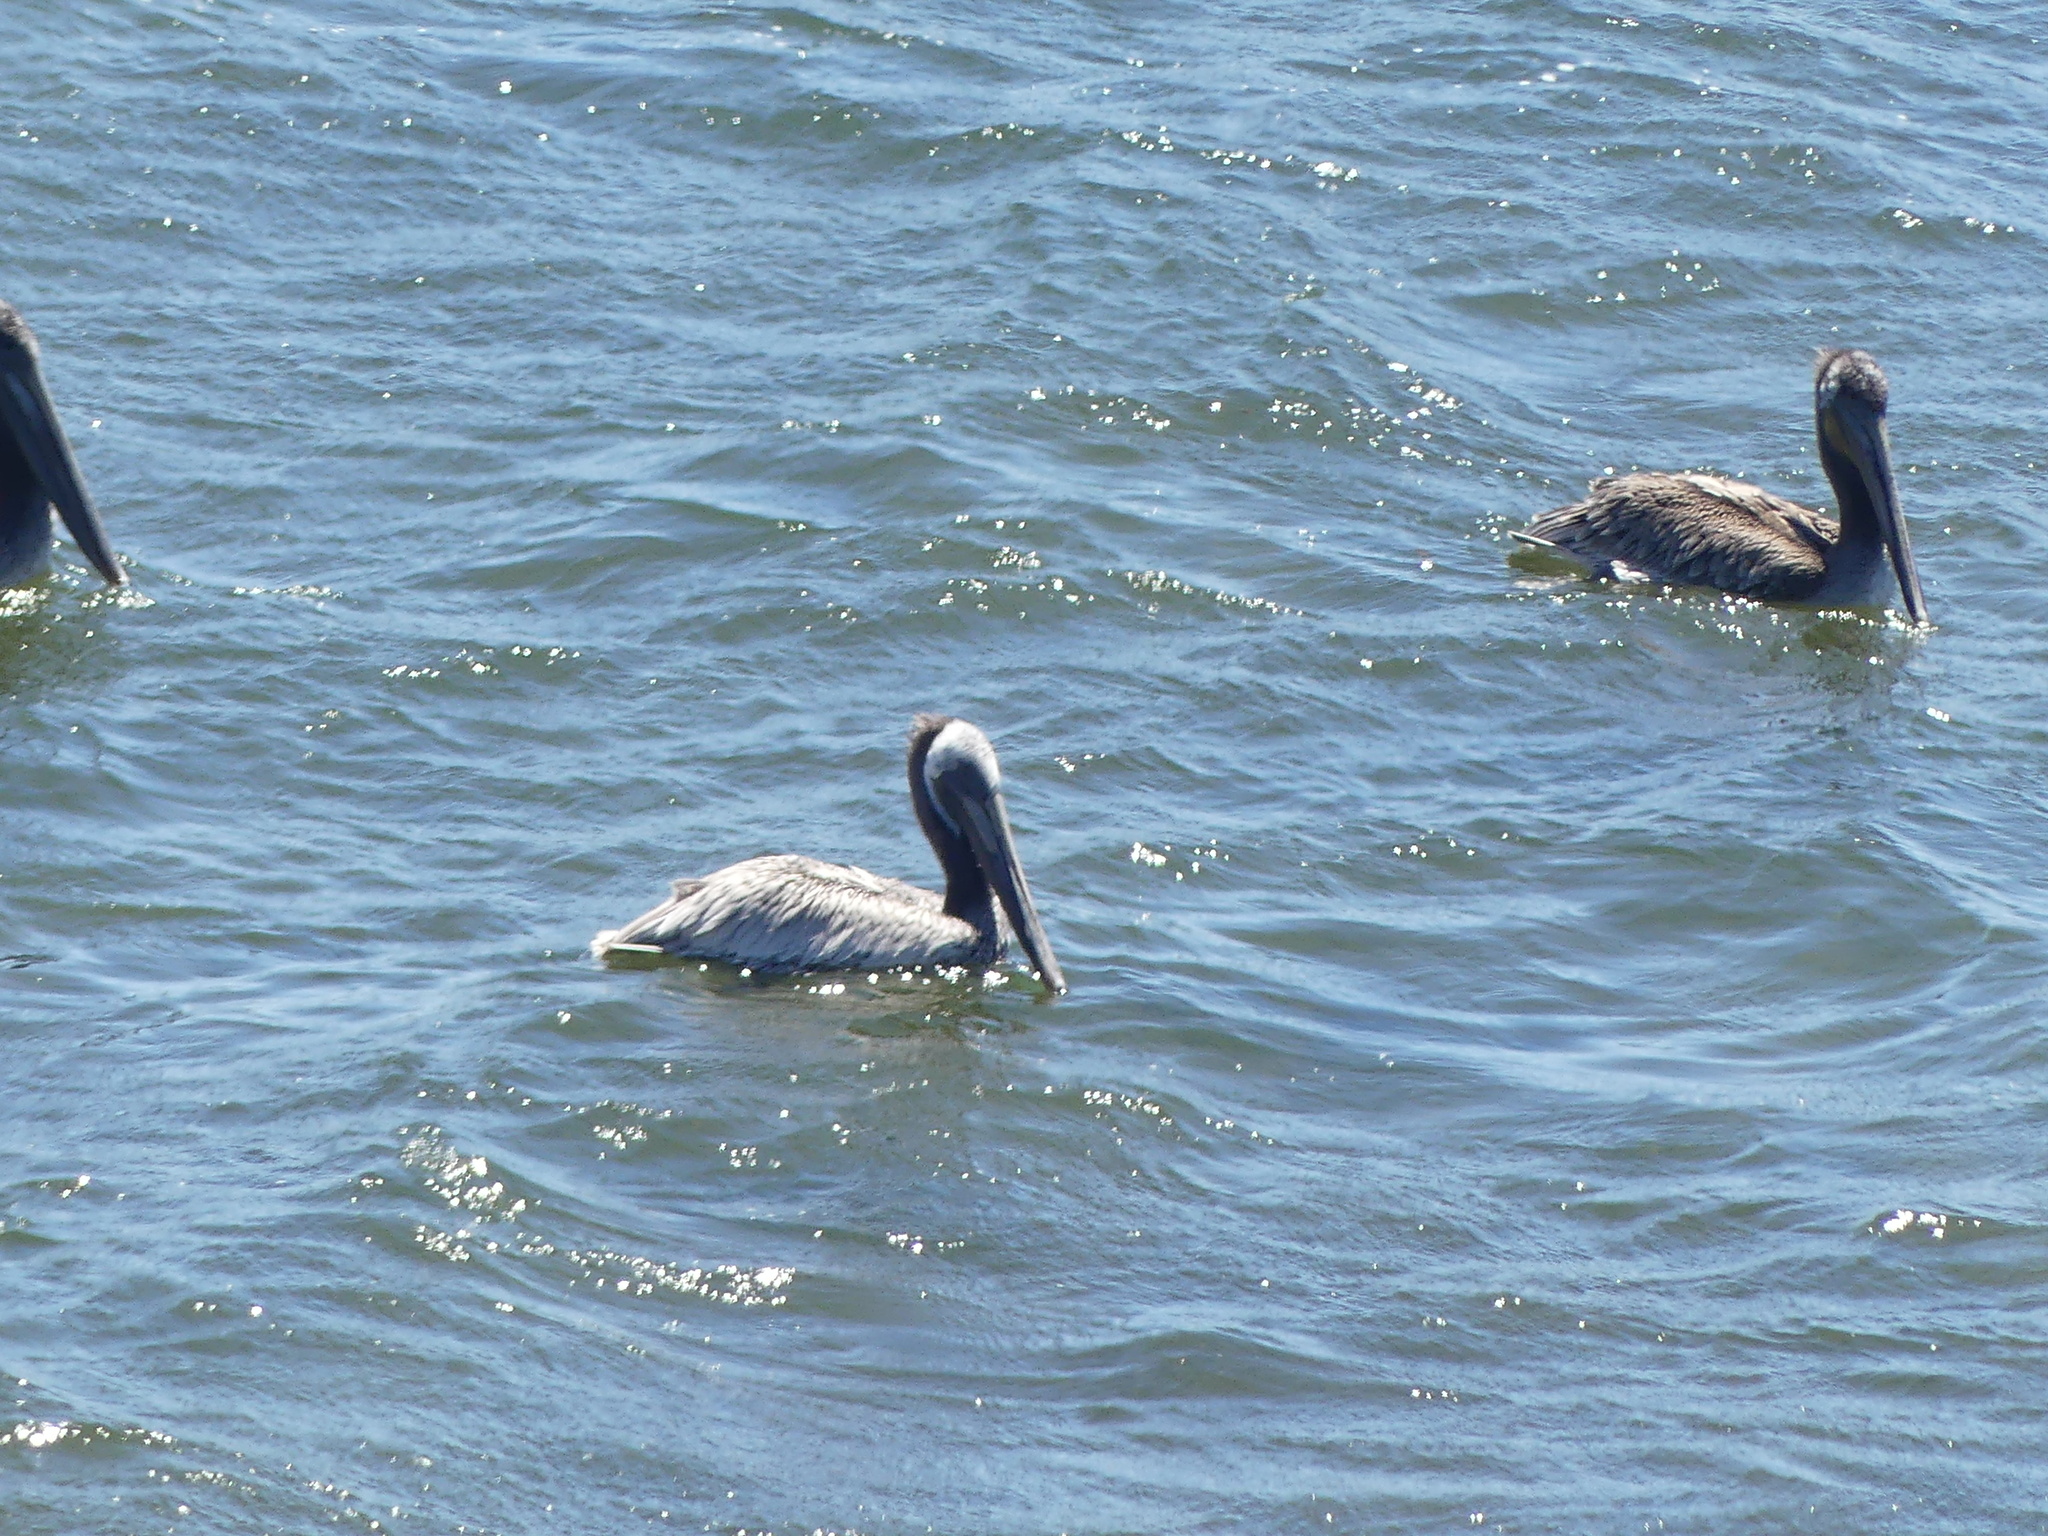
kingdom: Animalia
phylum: Chordata
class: Aves
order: Pelecaniformes
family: Pelecanidae
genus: Pelecanus
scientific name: Pelecanus occidentalis
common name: Brown pelican
